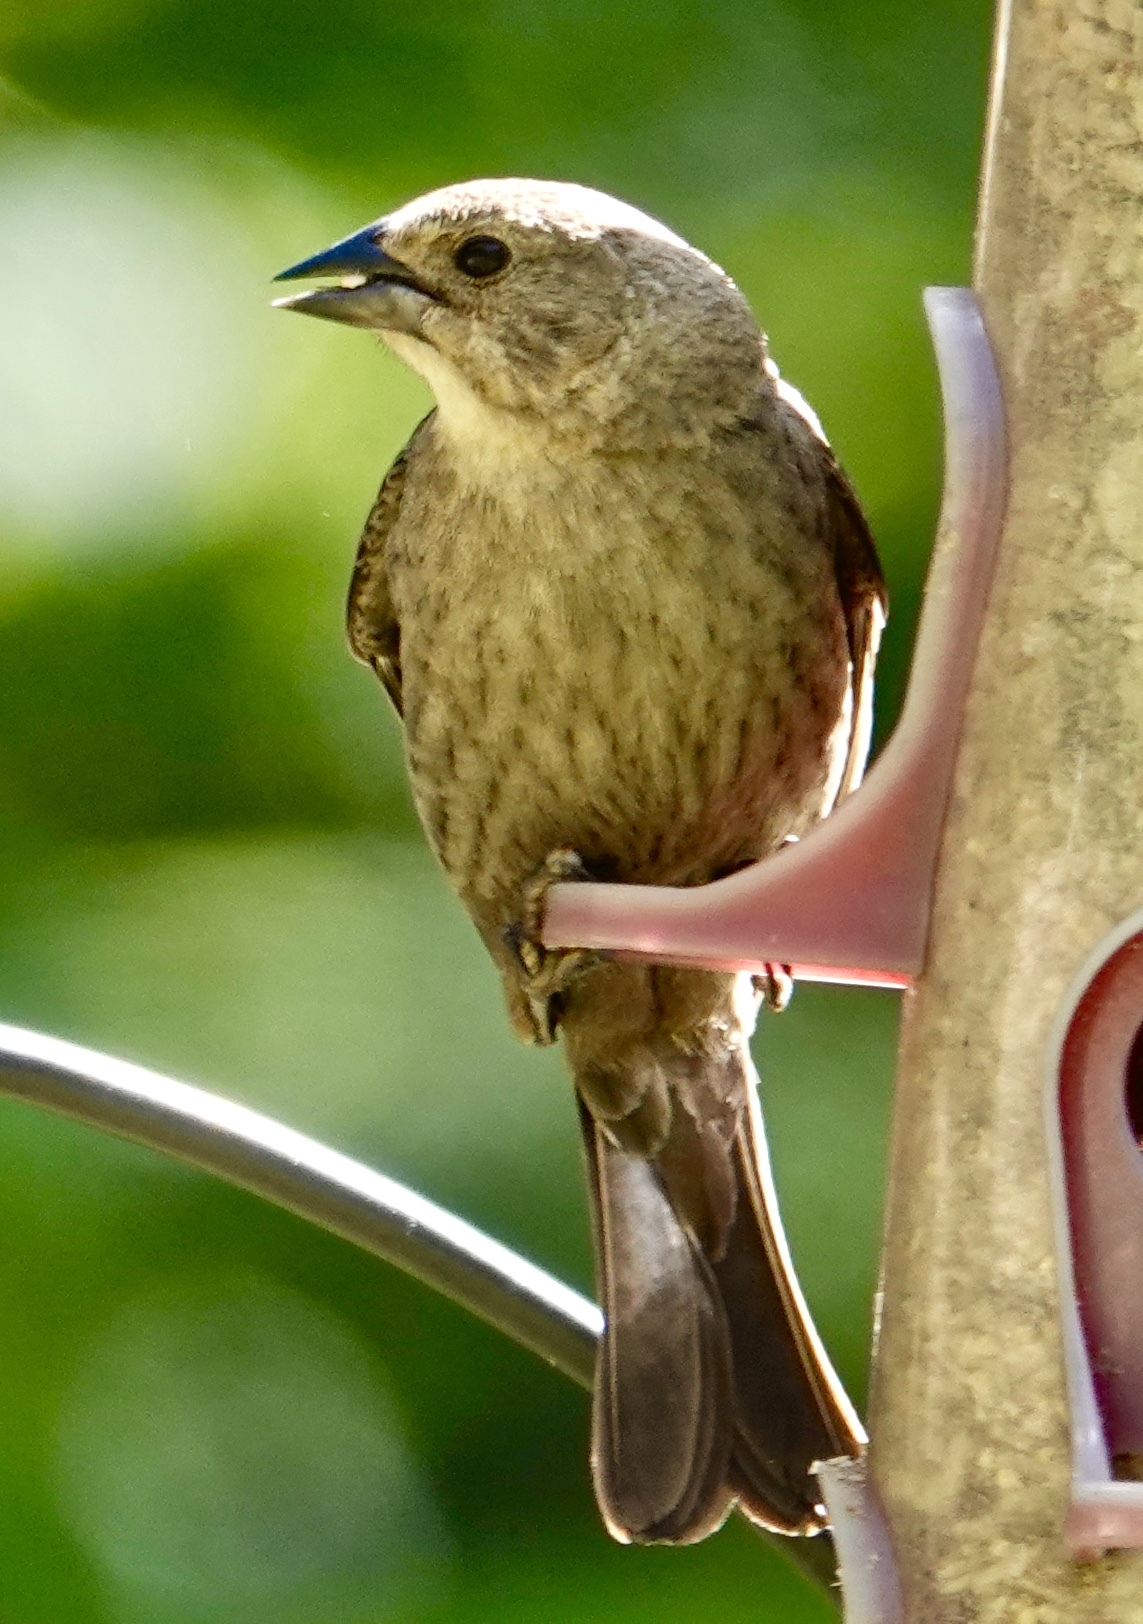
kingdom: Animalia
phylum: Chordata
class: Aves
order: Passeriformes
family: Icteridae
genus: Molothrus
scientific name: Molothrus ater
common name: Brown-headed cowbird
